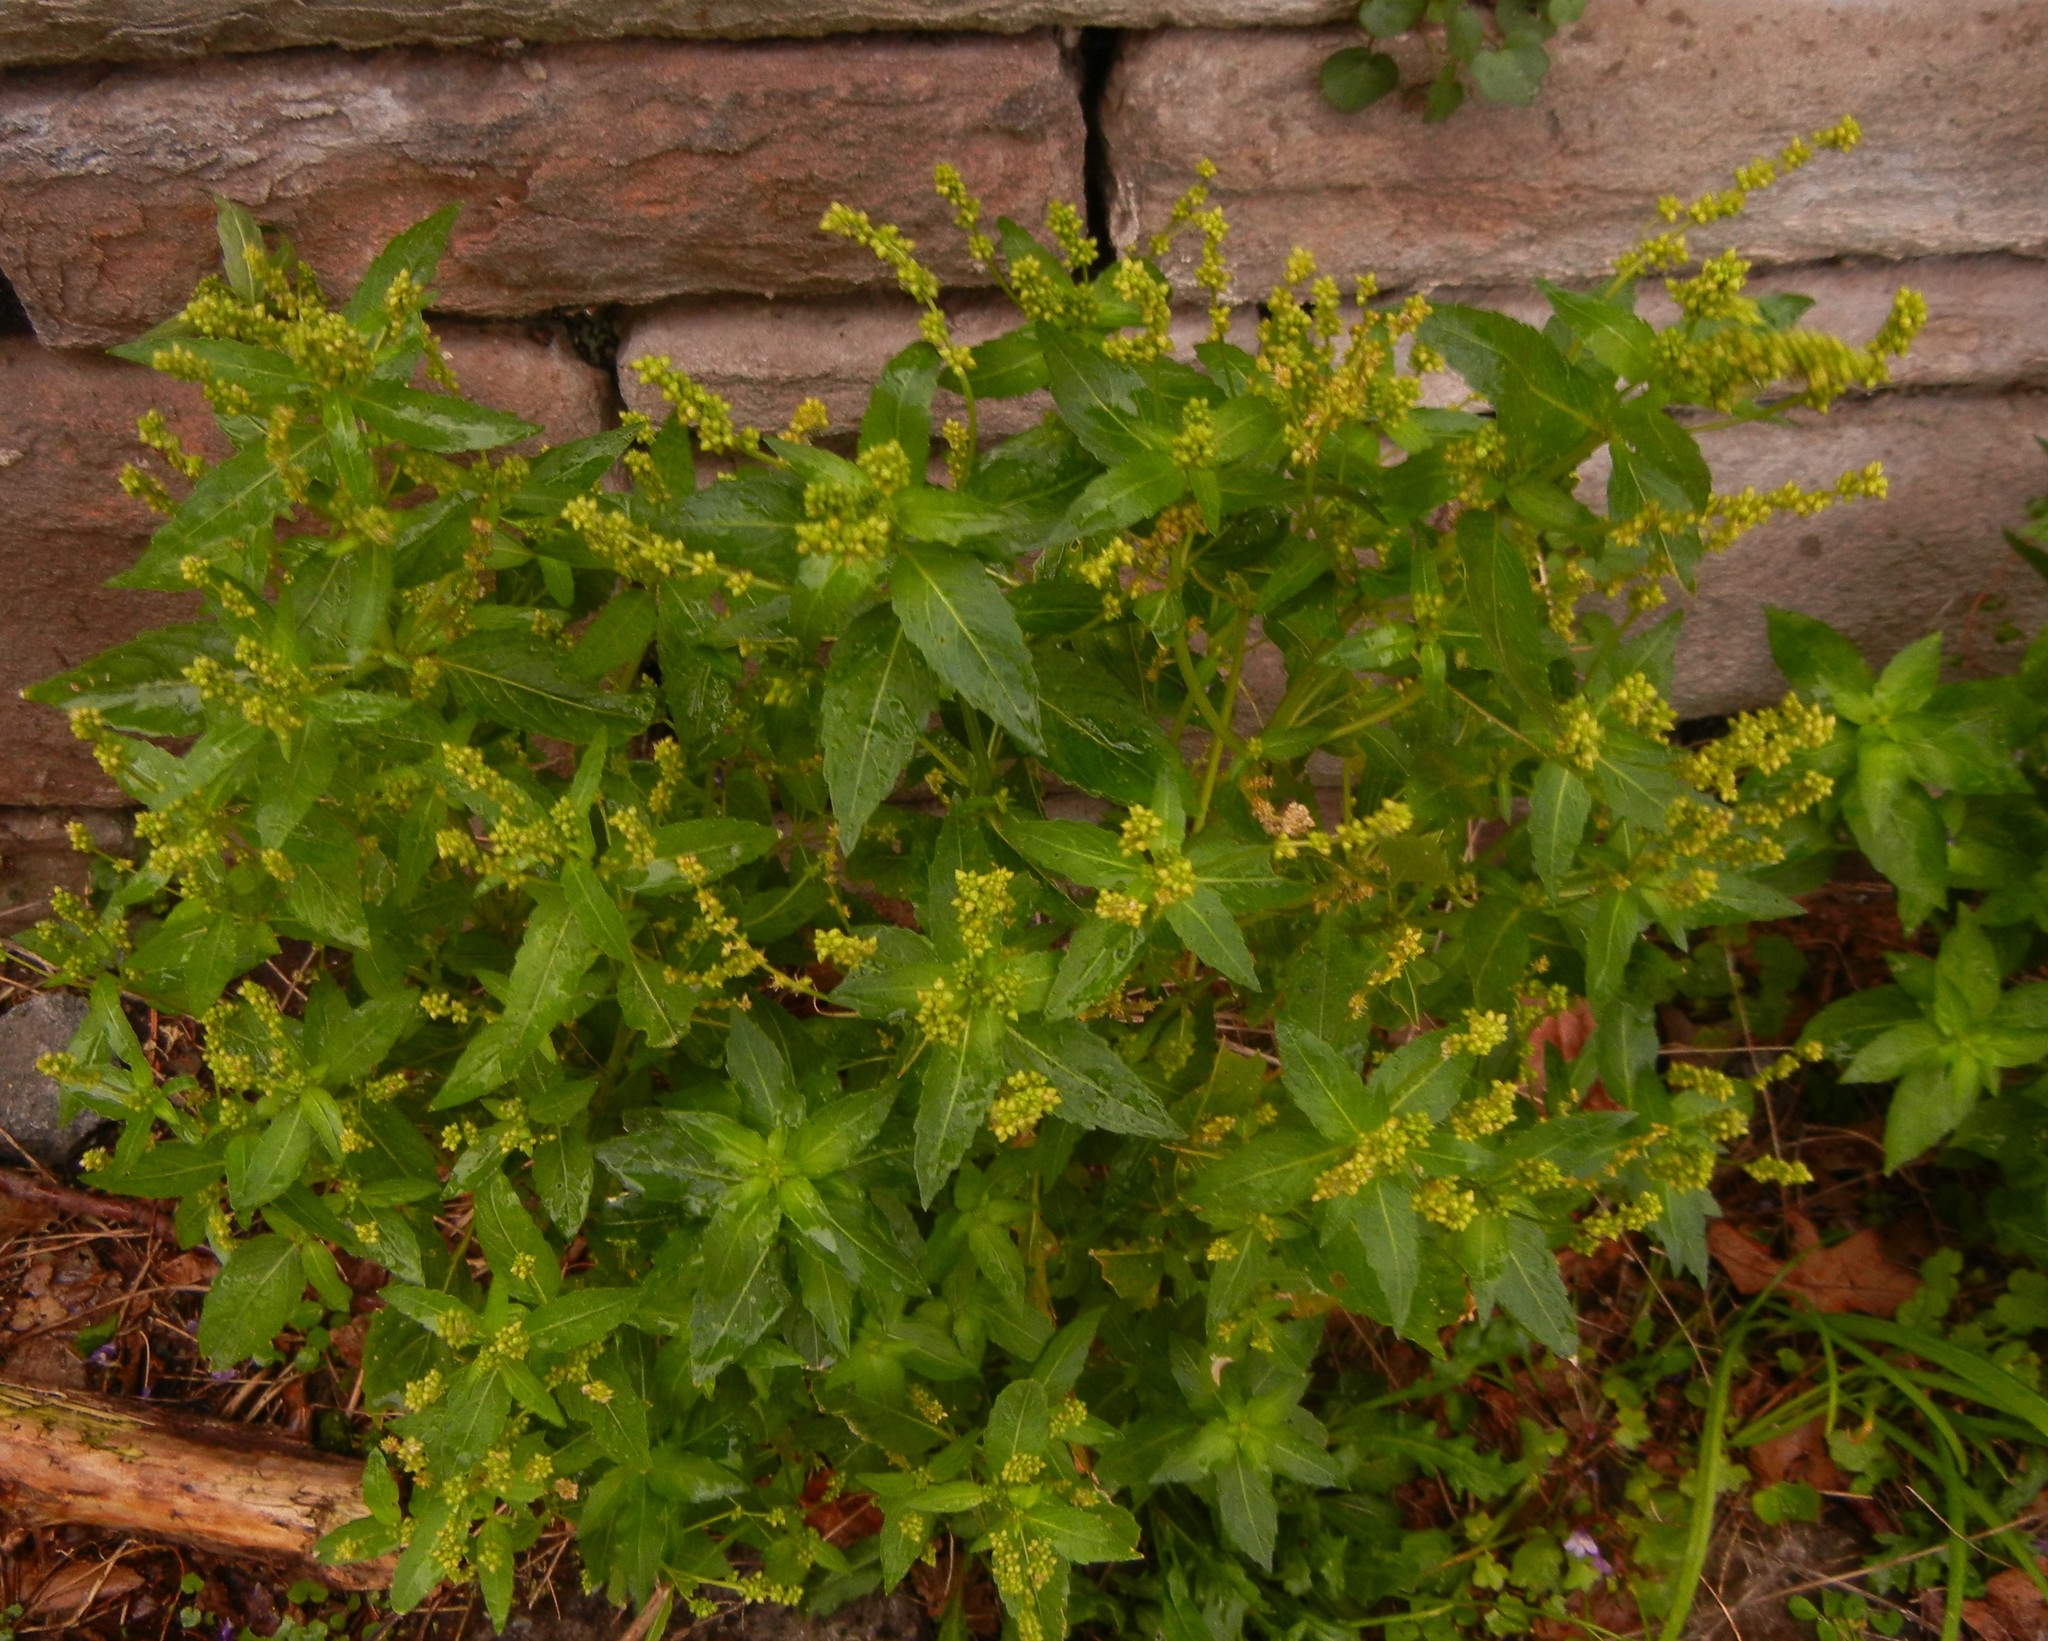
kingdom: Plantae
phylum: Tracheophyta
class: Magnoliopsida
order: Malpighiales
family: Euphorbiaceae
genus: Mercurialis
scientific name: Mercurialis annua
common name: Annual mercury
